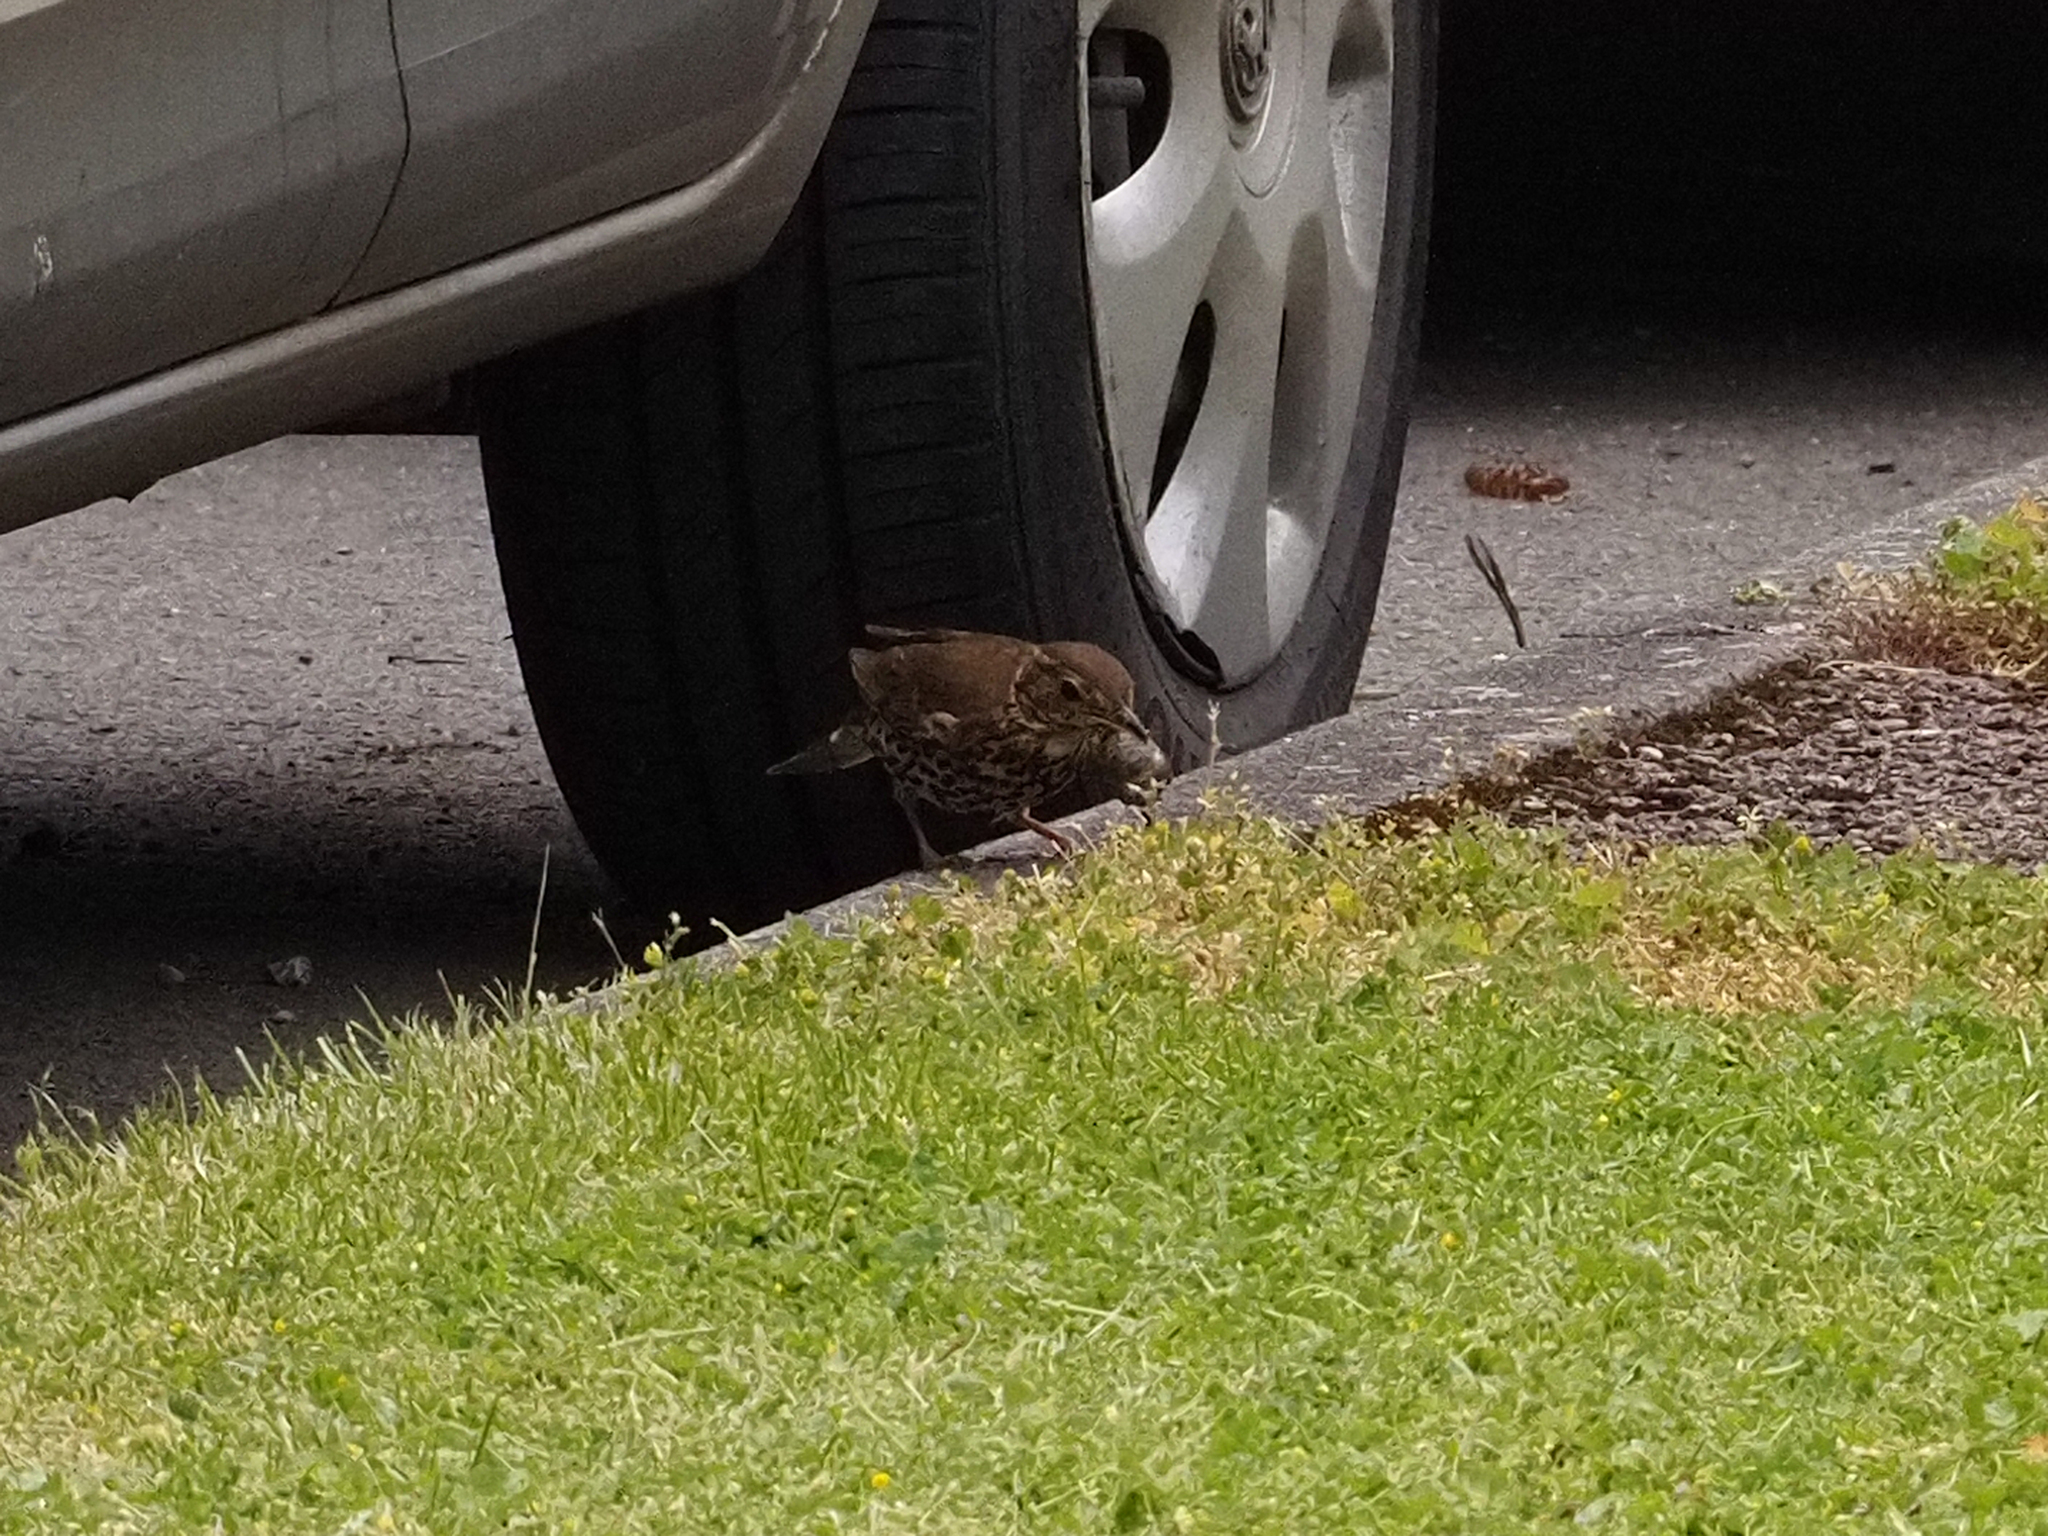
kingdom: Animalia
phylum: Chordata
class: Aves
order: Passeriformes
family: Turdidae
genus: Turdus
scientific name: Turdus philomelos
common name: Song thrush
